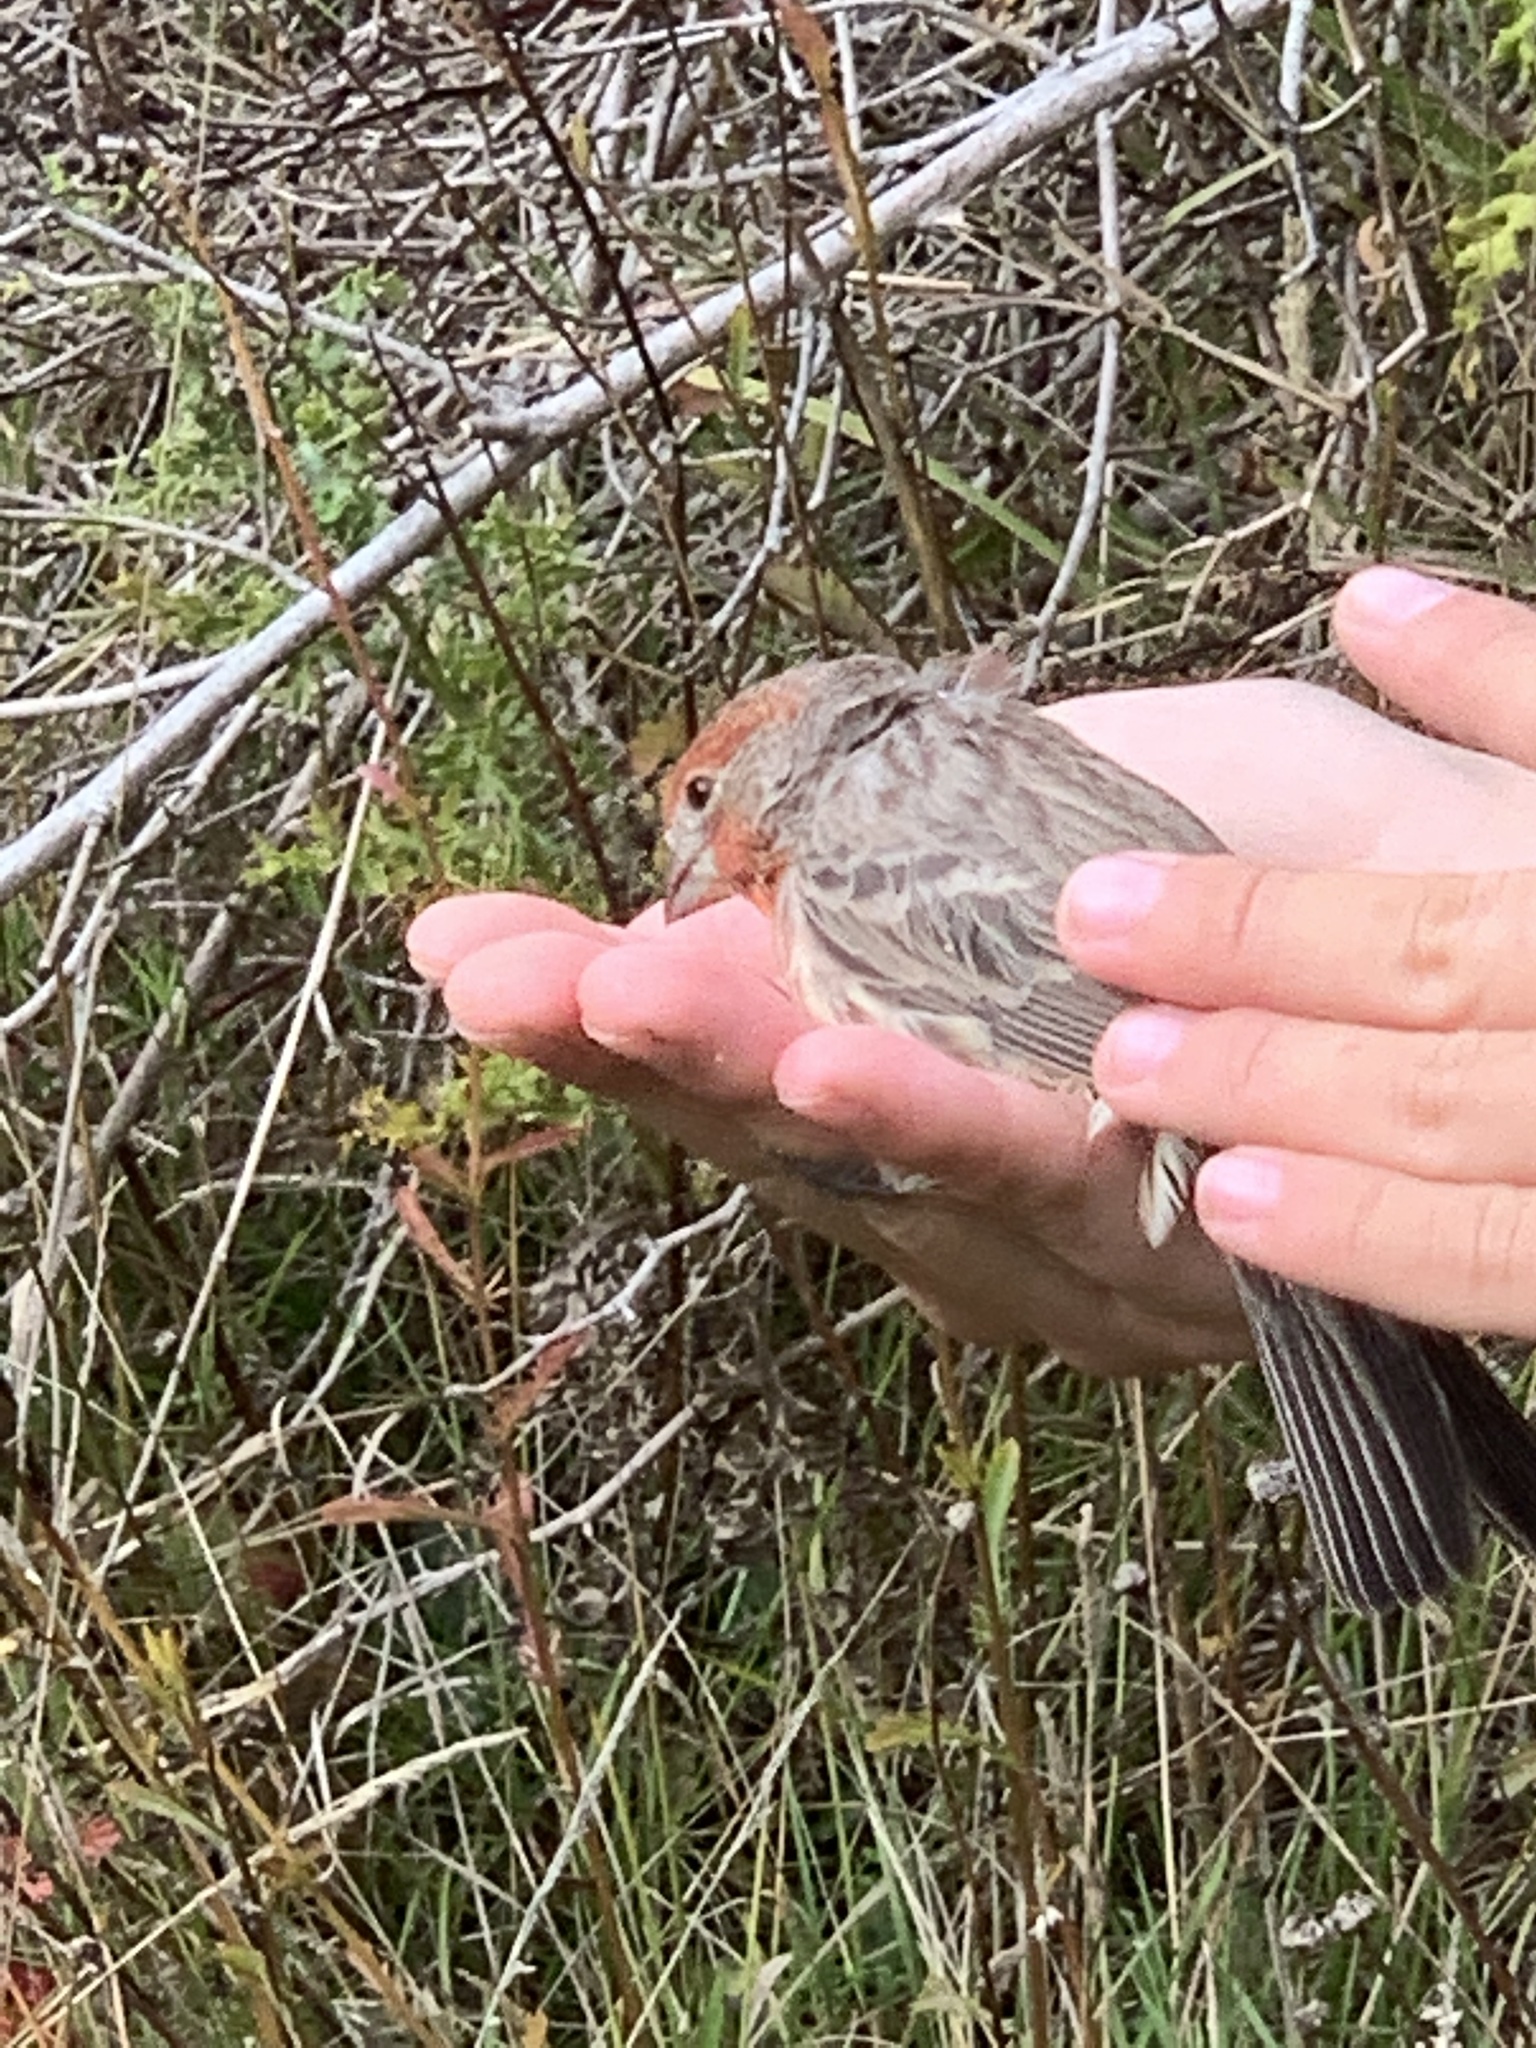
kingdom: Animalia
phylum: Chordata
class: Aves
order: Passeriformes
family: Fringillidae
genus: Haemorhous
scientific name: Haemorhous mexicanus
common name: House finch
